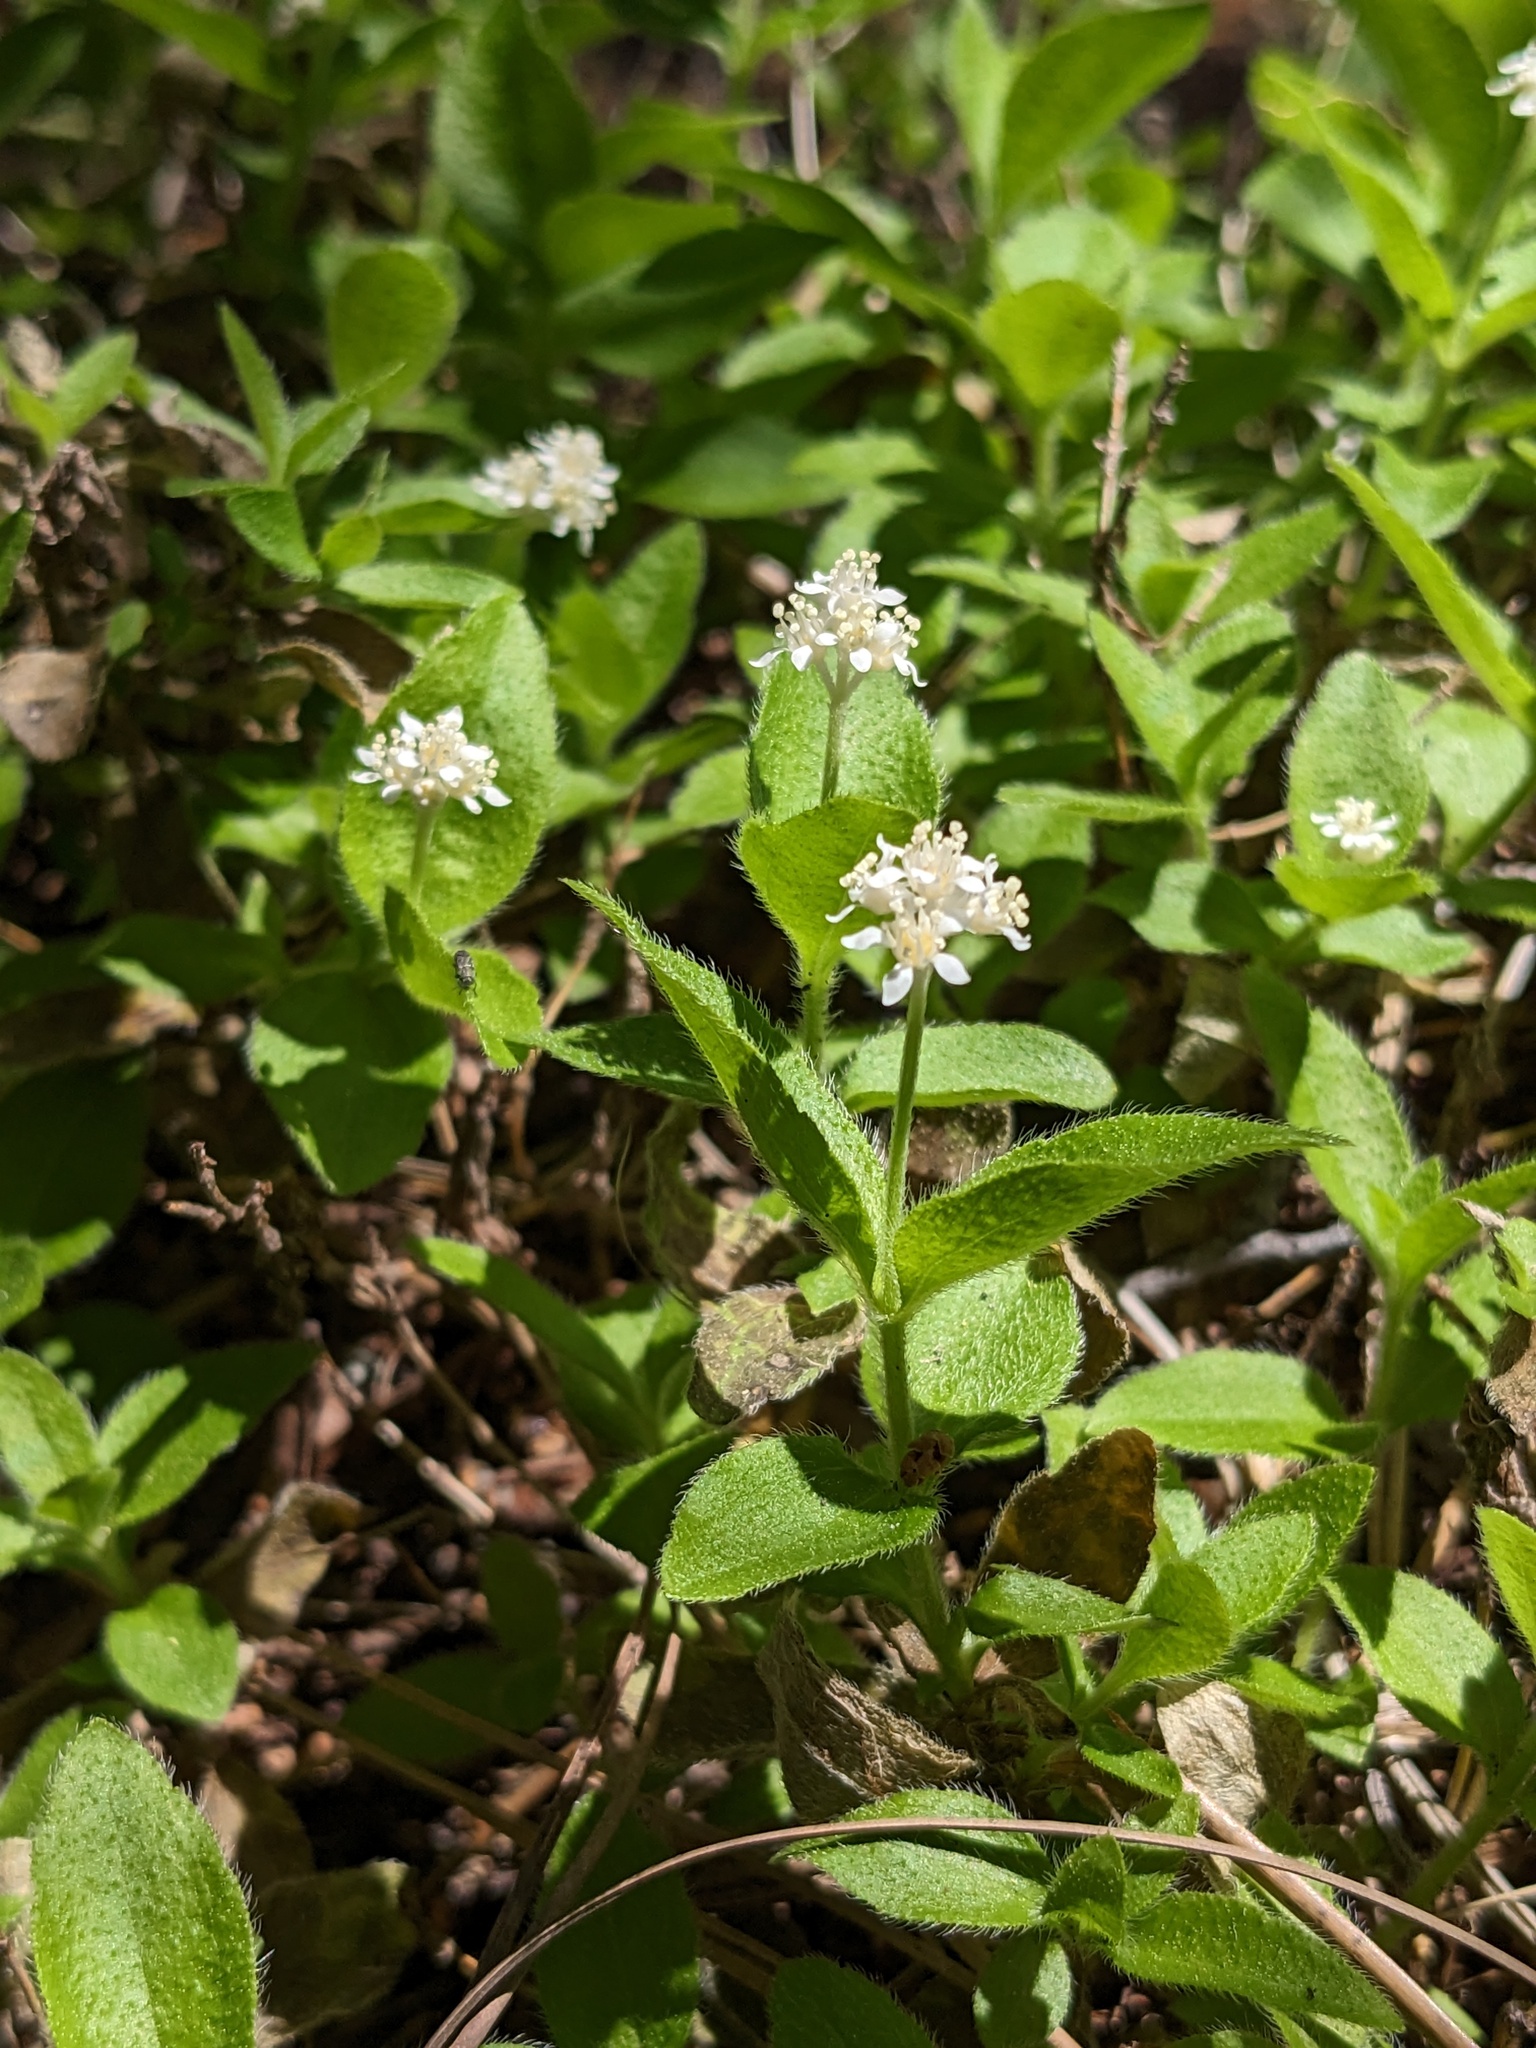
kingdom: Plantae
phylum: Tracheophyta
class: Magnoliopsida
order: Cornales
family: Hydrangeaceae
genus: Whipplea
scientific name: Whipplea modesta
